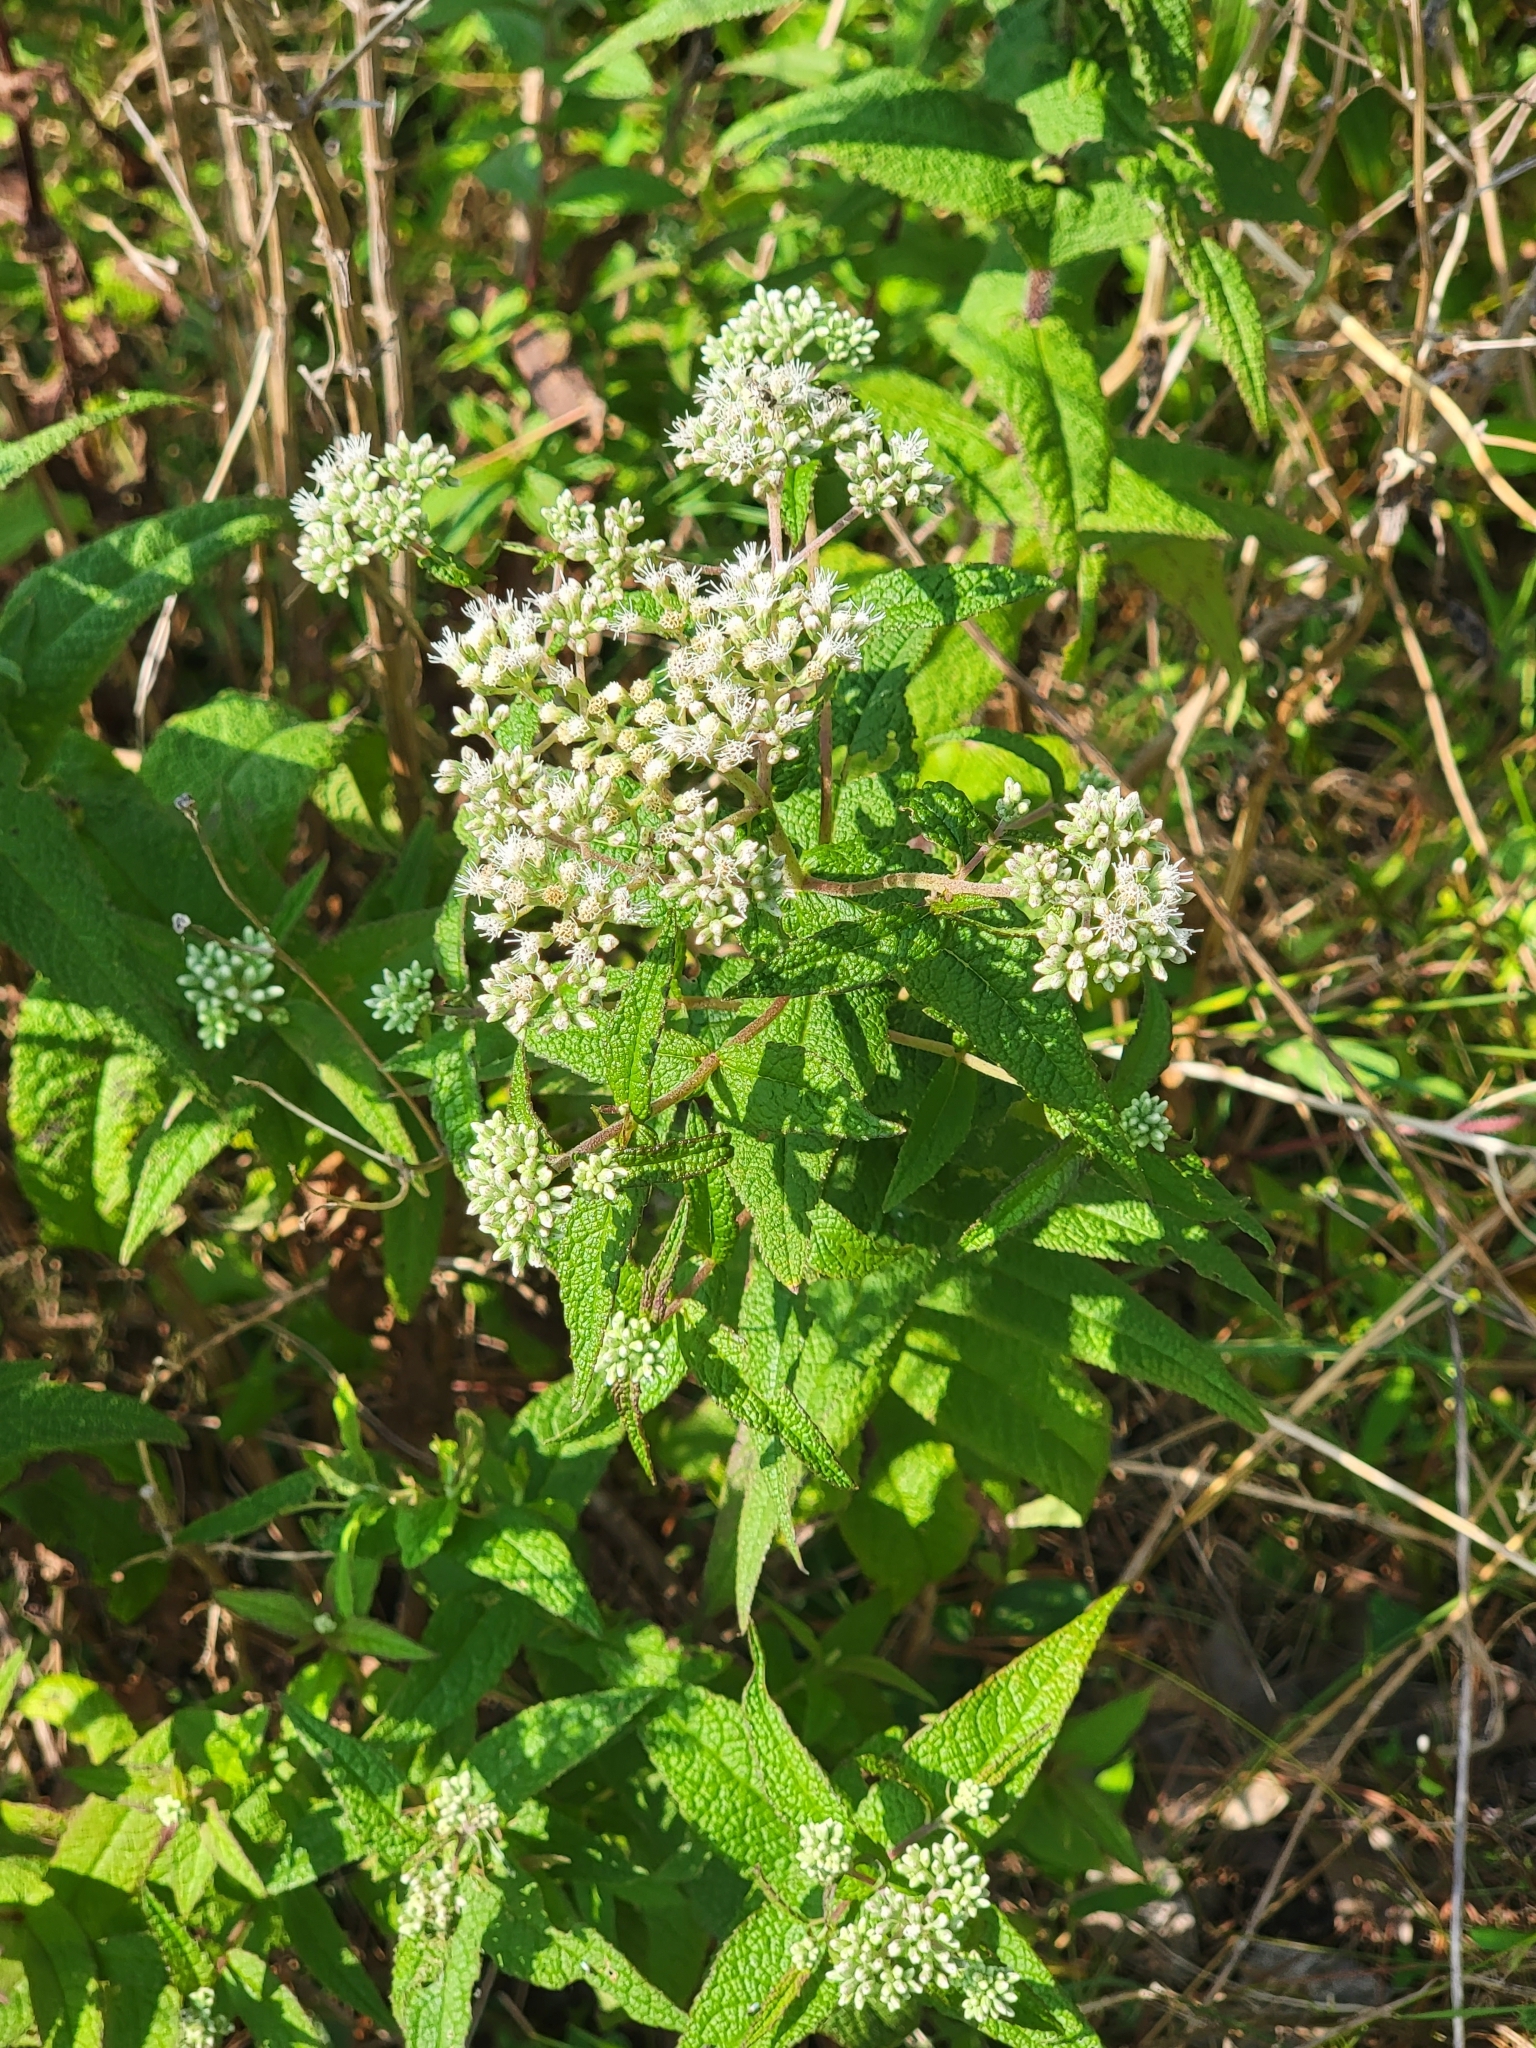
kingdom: Plantae
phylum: Tracheophyta
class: Magnoliopsida
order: Asterales
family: Asteraceae
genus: Eupatorium
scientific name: Eupatorium perfoliatum
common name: Boneset
